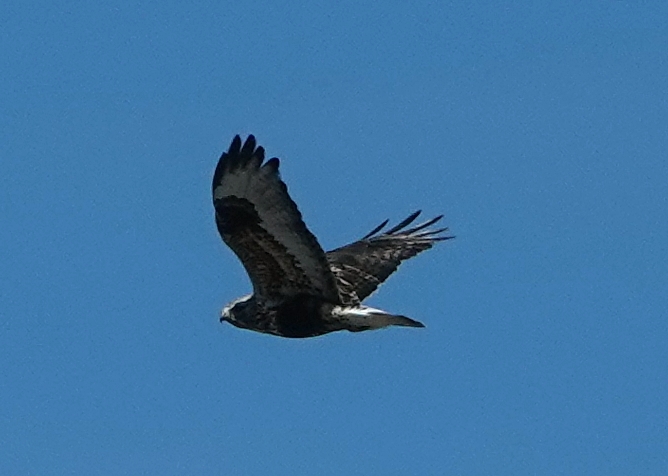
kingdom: Animalia
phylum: Chordata
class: Aves
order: Accipitriformes
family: Accipitridae
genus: Buteo
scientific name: Buteo lagopus
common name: Rough-legged buzzard
